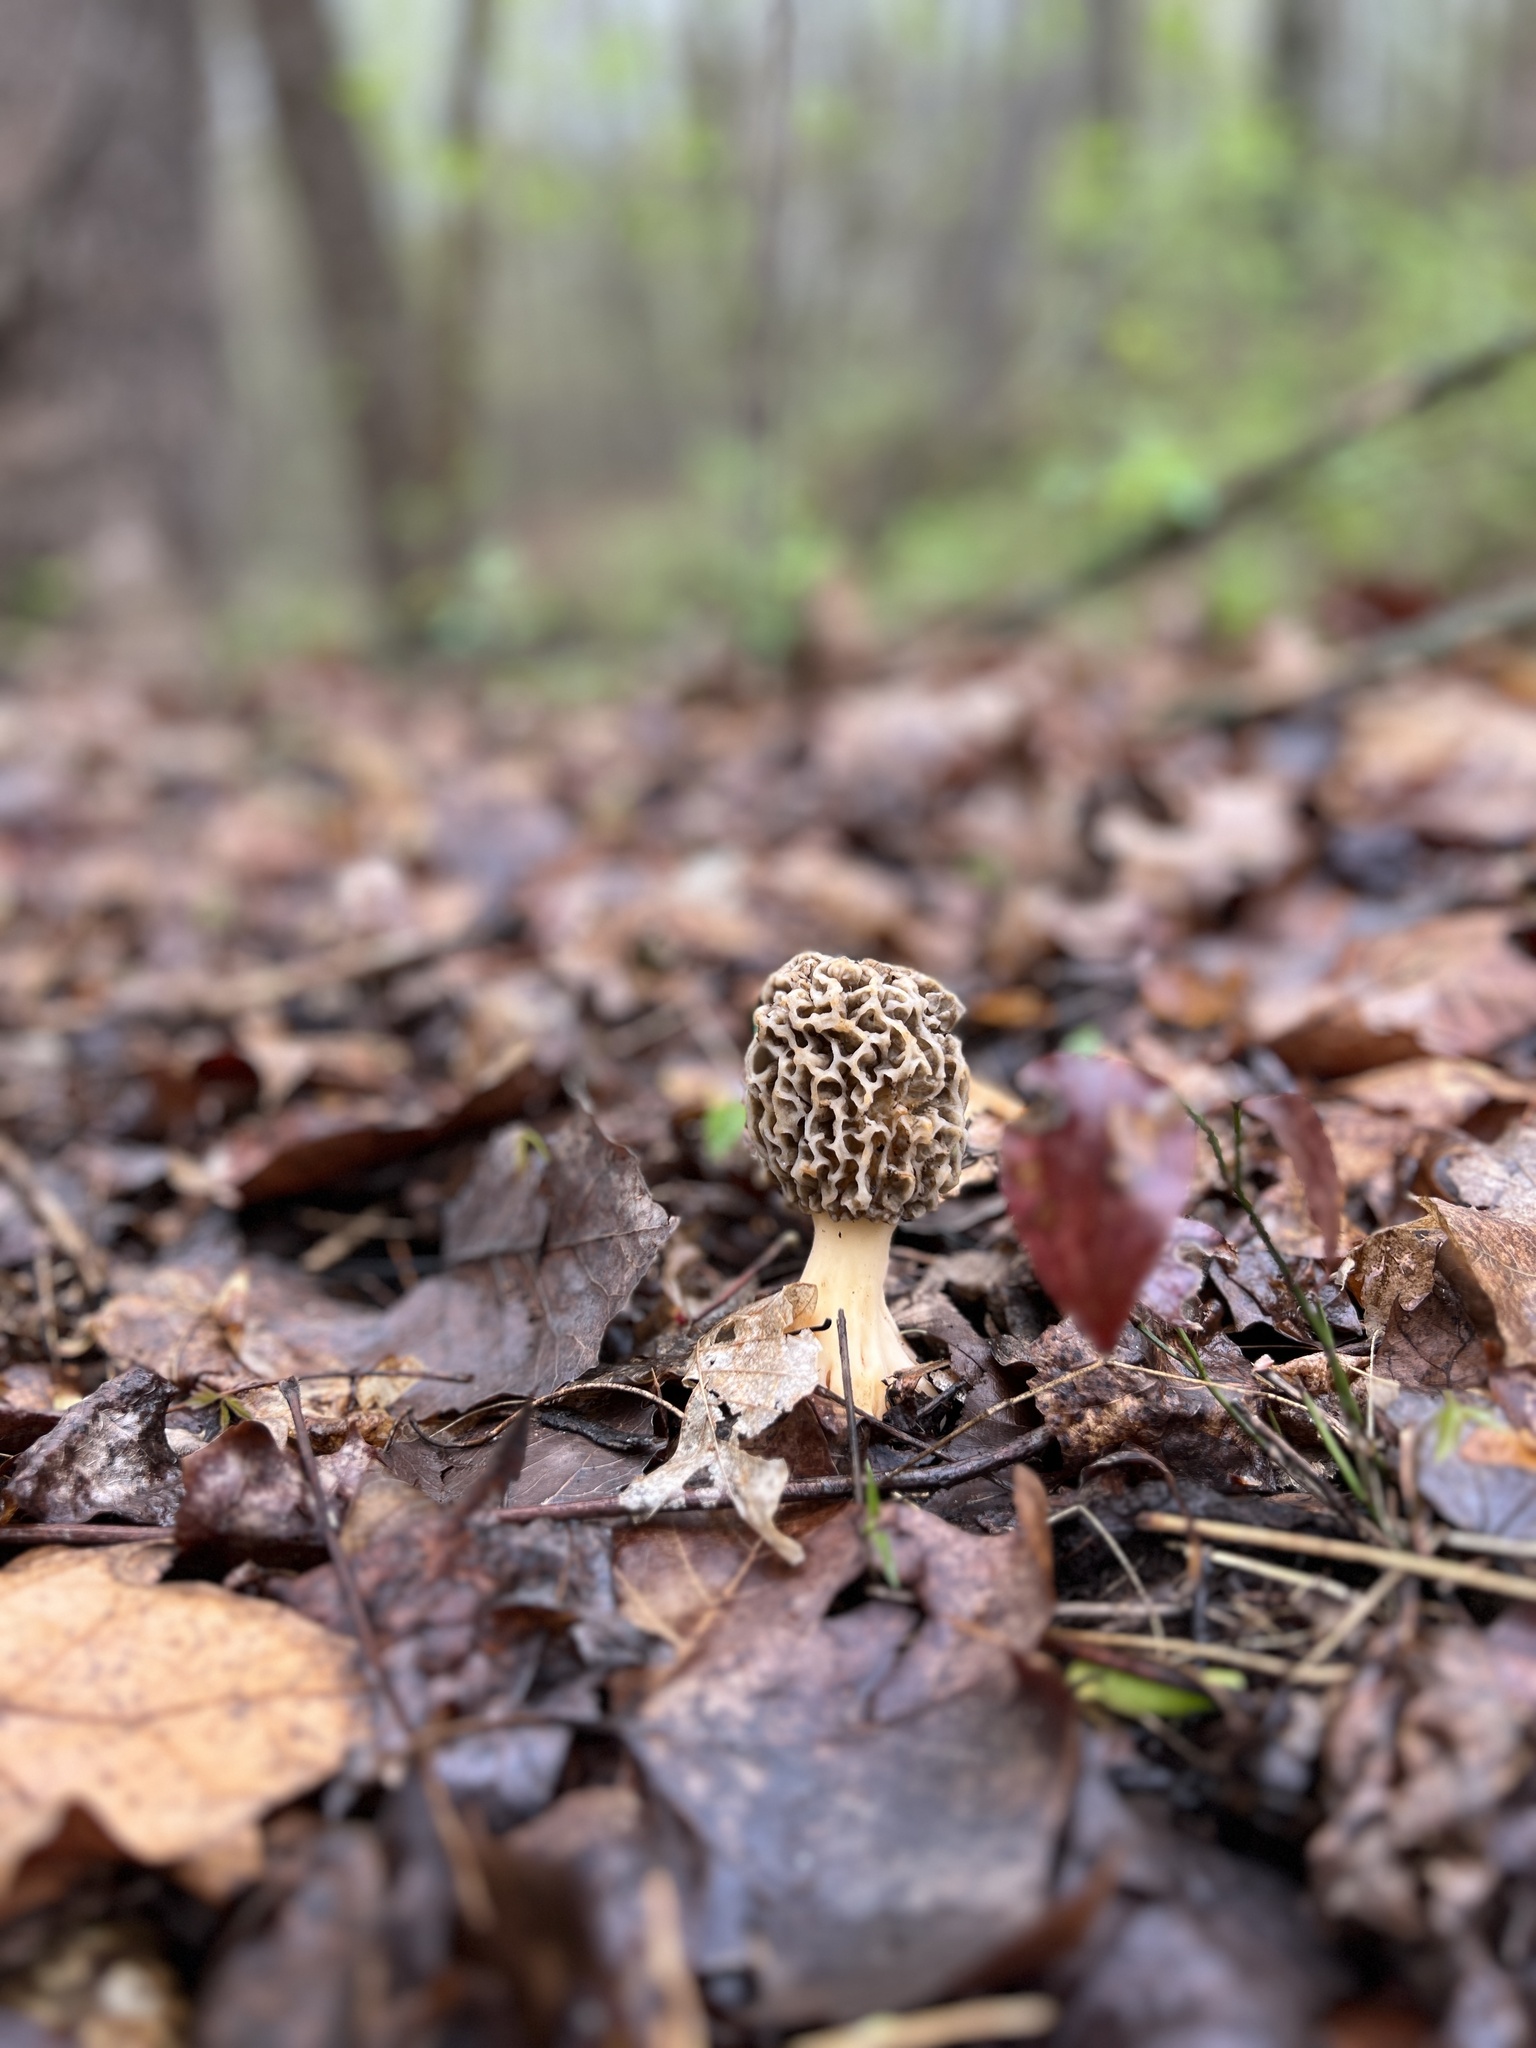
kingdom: Fungi
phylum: Ascomycota
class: Pezizomycetes
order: Pezizales
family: Morchellaceae
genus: Morchella
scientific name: Morchella americana
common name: White morel
